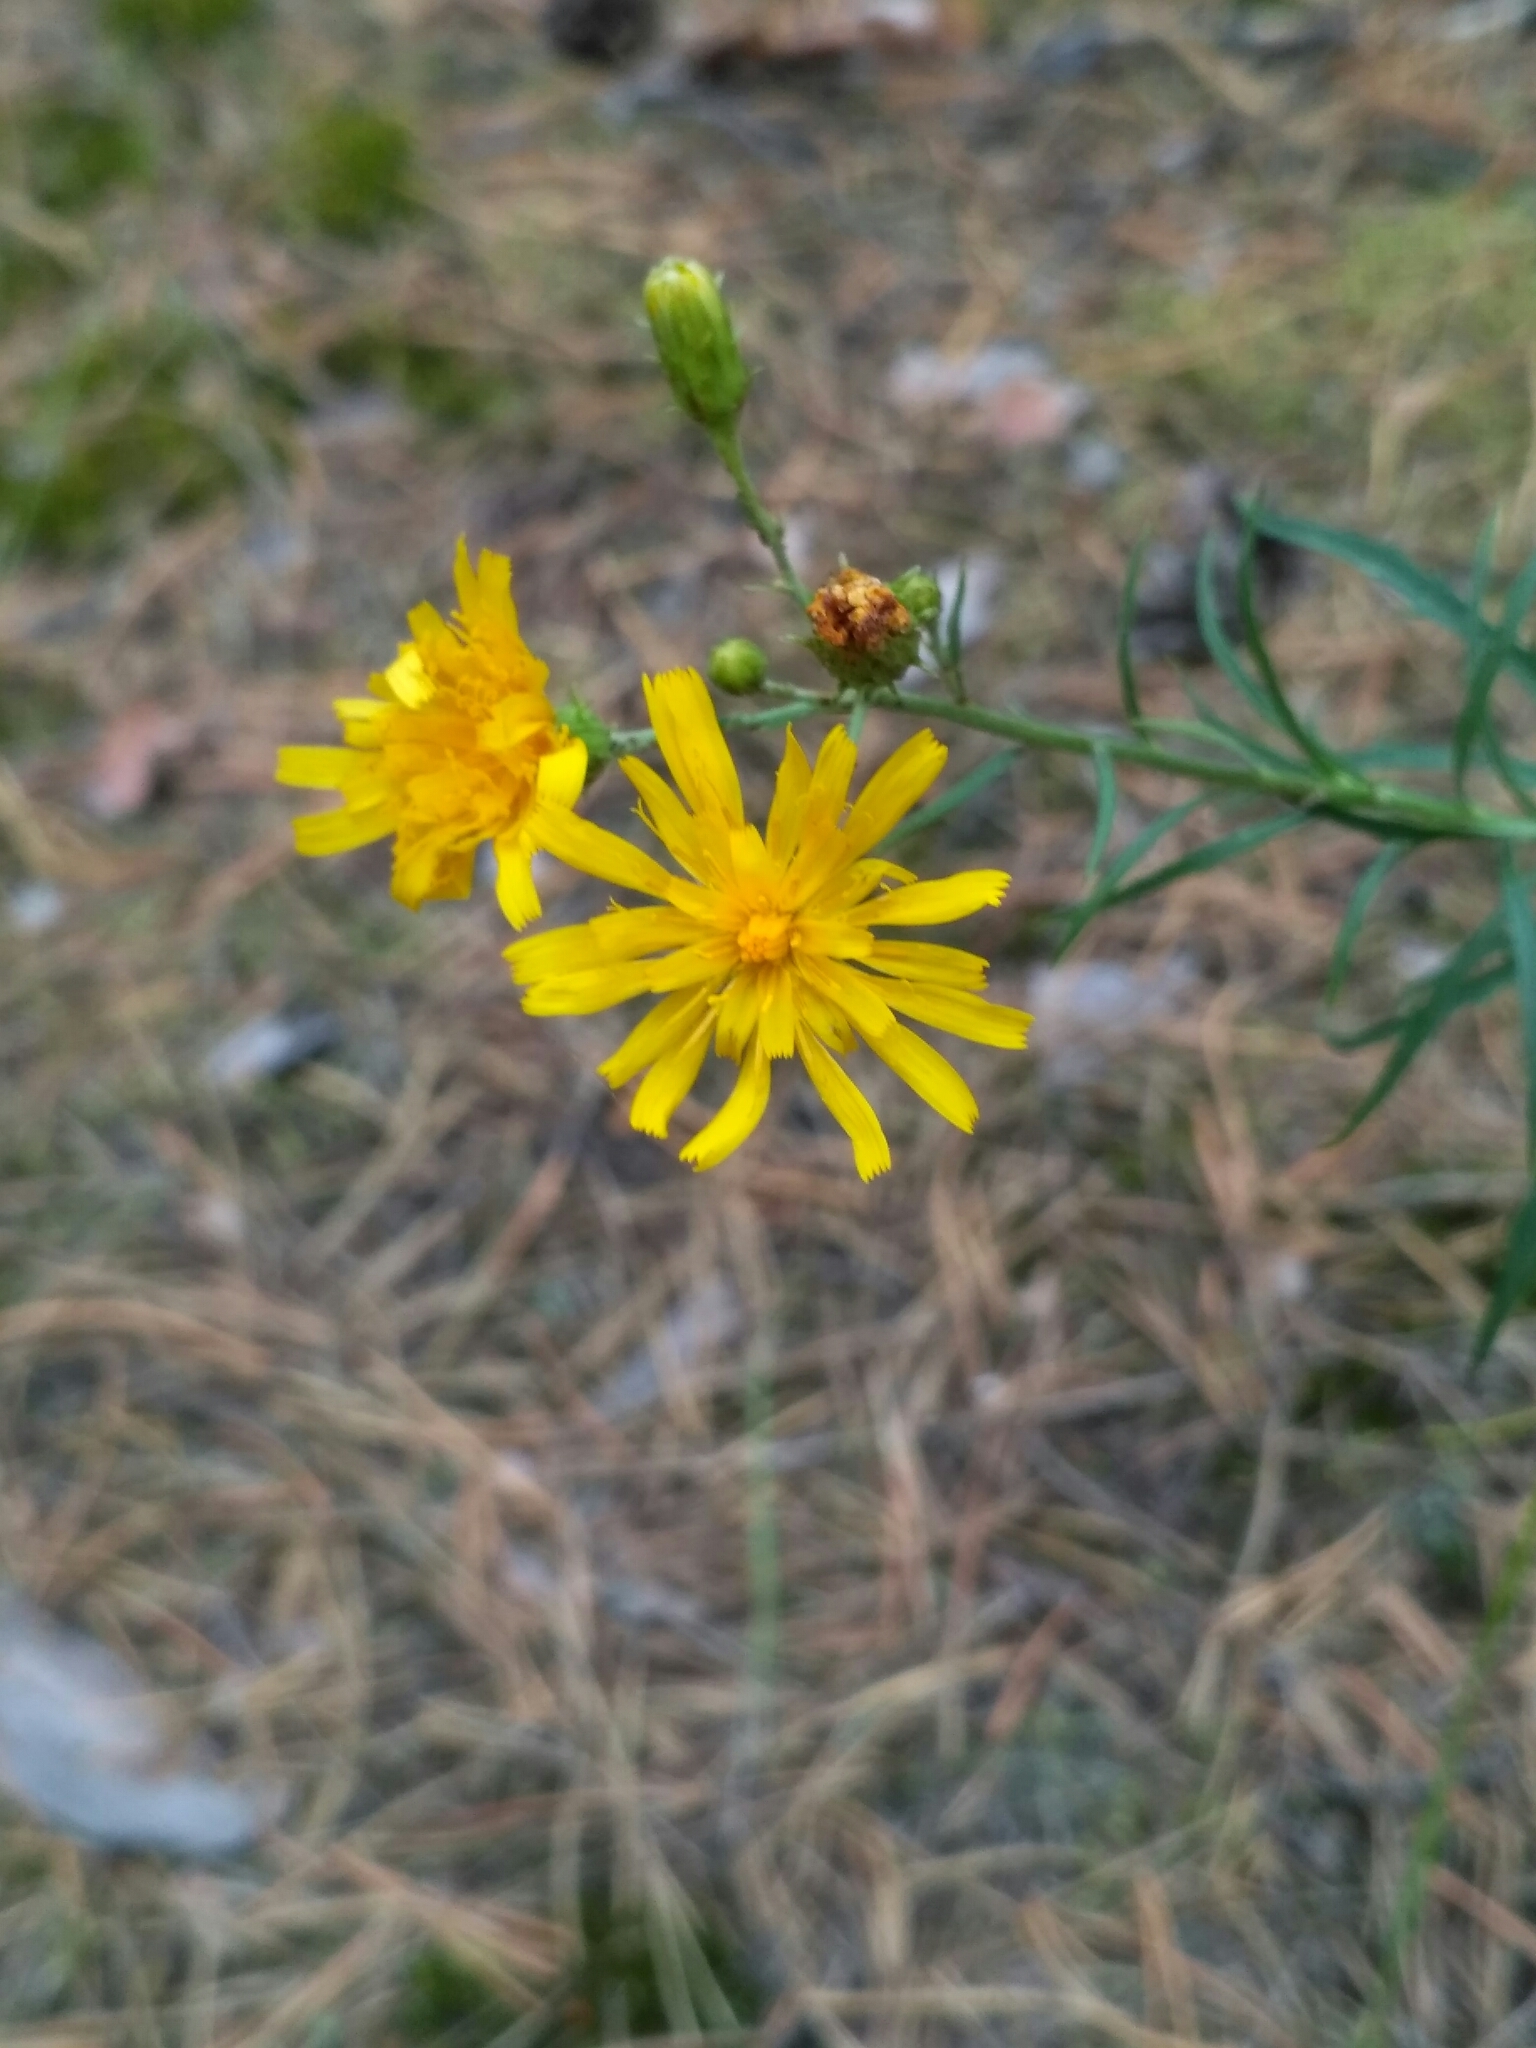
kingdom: Plantae
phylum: Tracheophyta
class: Magnoliopsida
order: Asterales
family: Asteraceae
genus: Hieracium
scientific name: Hieracium umbellatum
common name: Northern hawkweed
